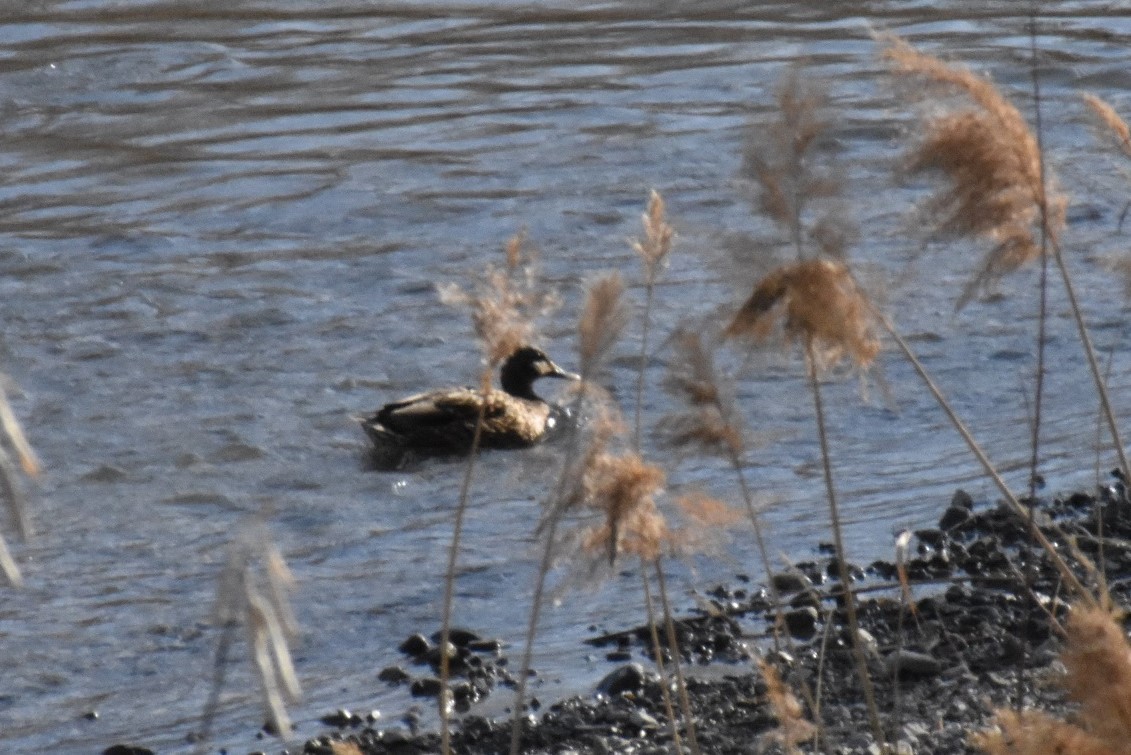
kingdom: Animalia
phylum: Chordata
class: Aves
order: Anseriformes
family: Anatidae
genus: Anas
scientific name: Anas platyrhynchos
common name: Mallard
